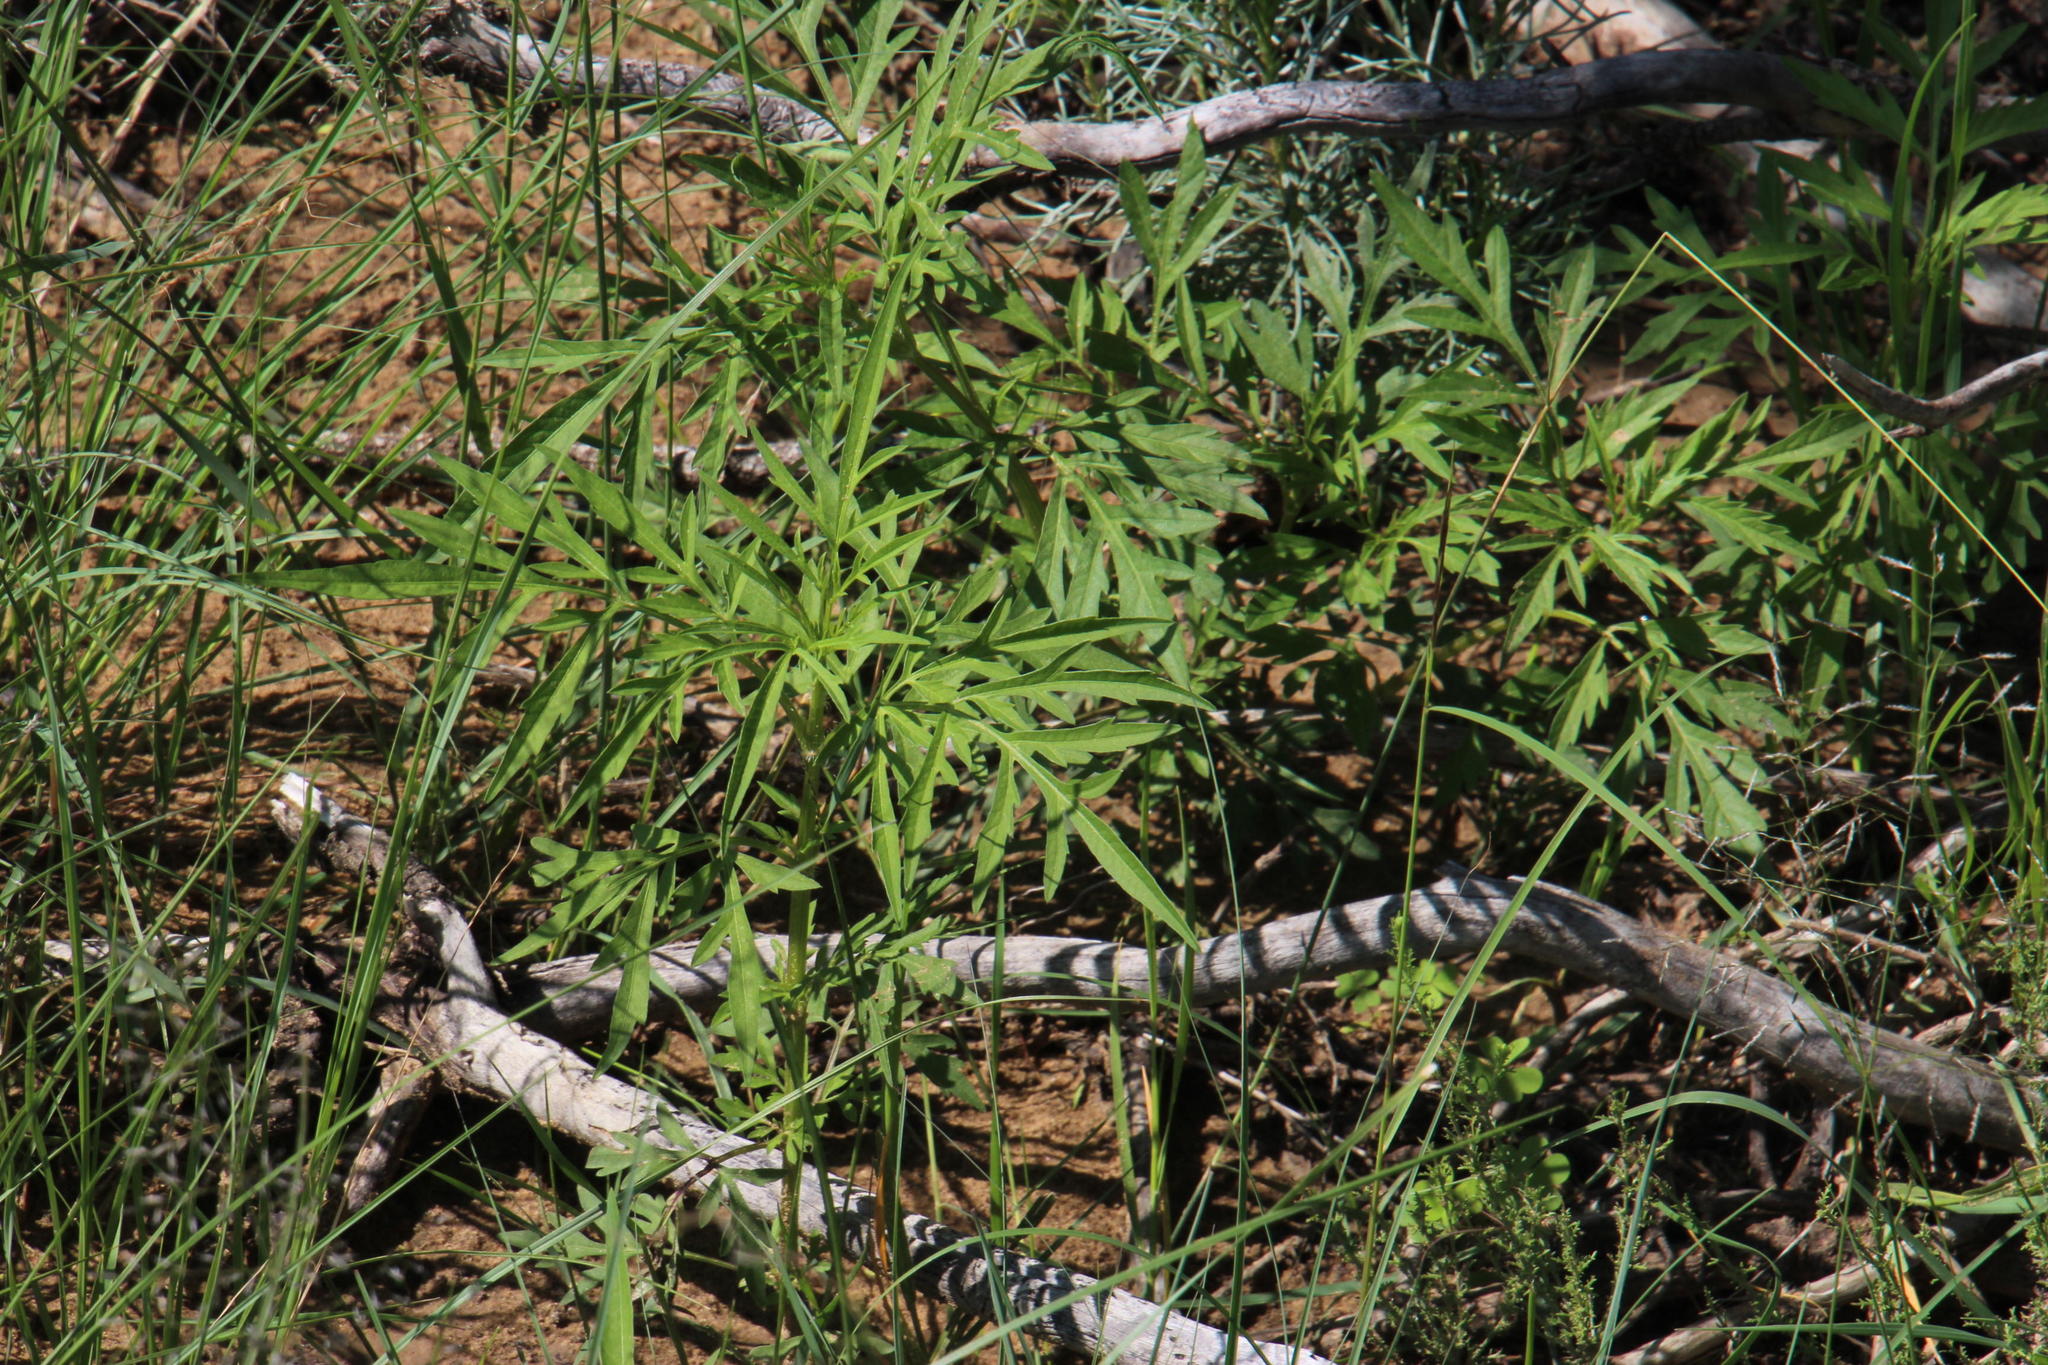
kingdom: Plantae
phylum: Tracheophyta
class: Magnoliopsida
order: Asterales
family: Asteraceae
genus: Tagetes
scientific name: Tagetes minuta
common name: Muster john henry
